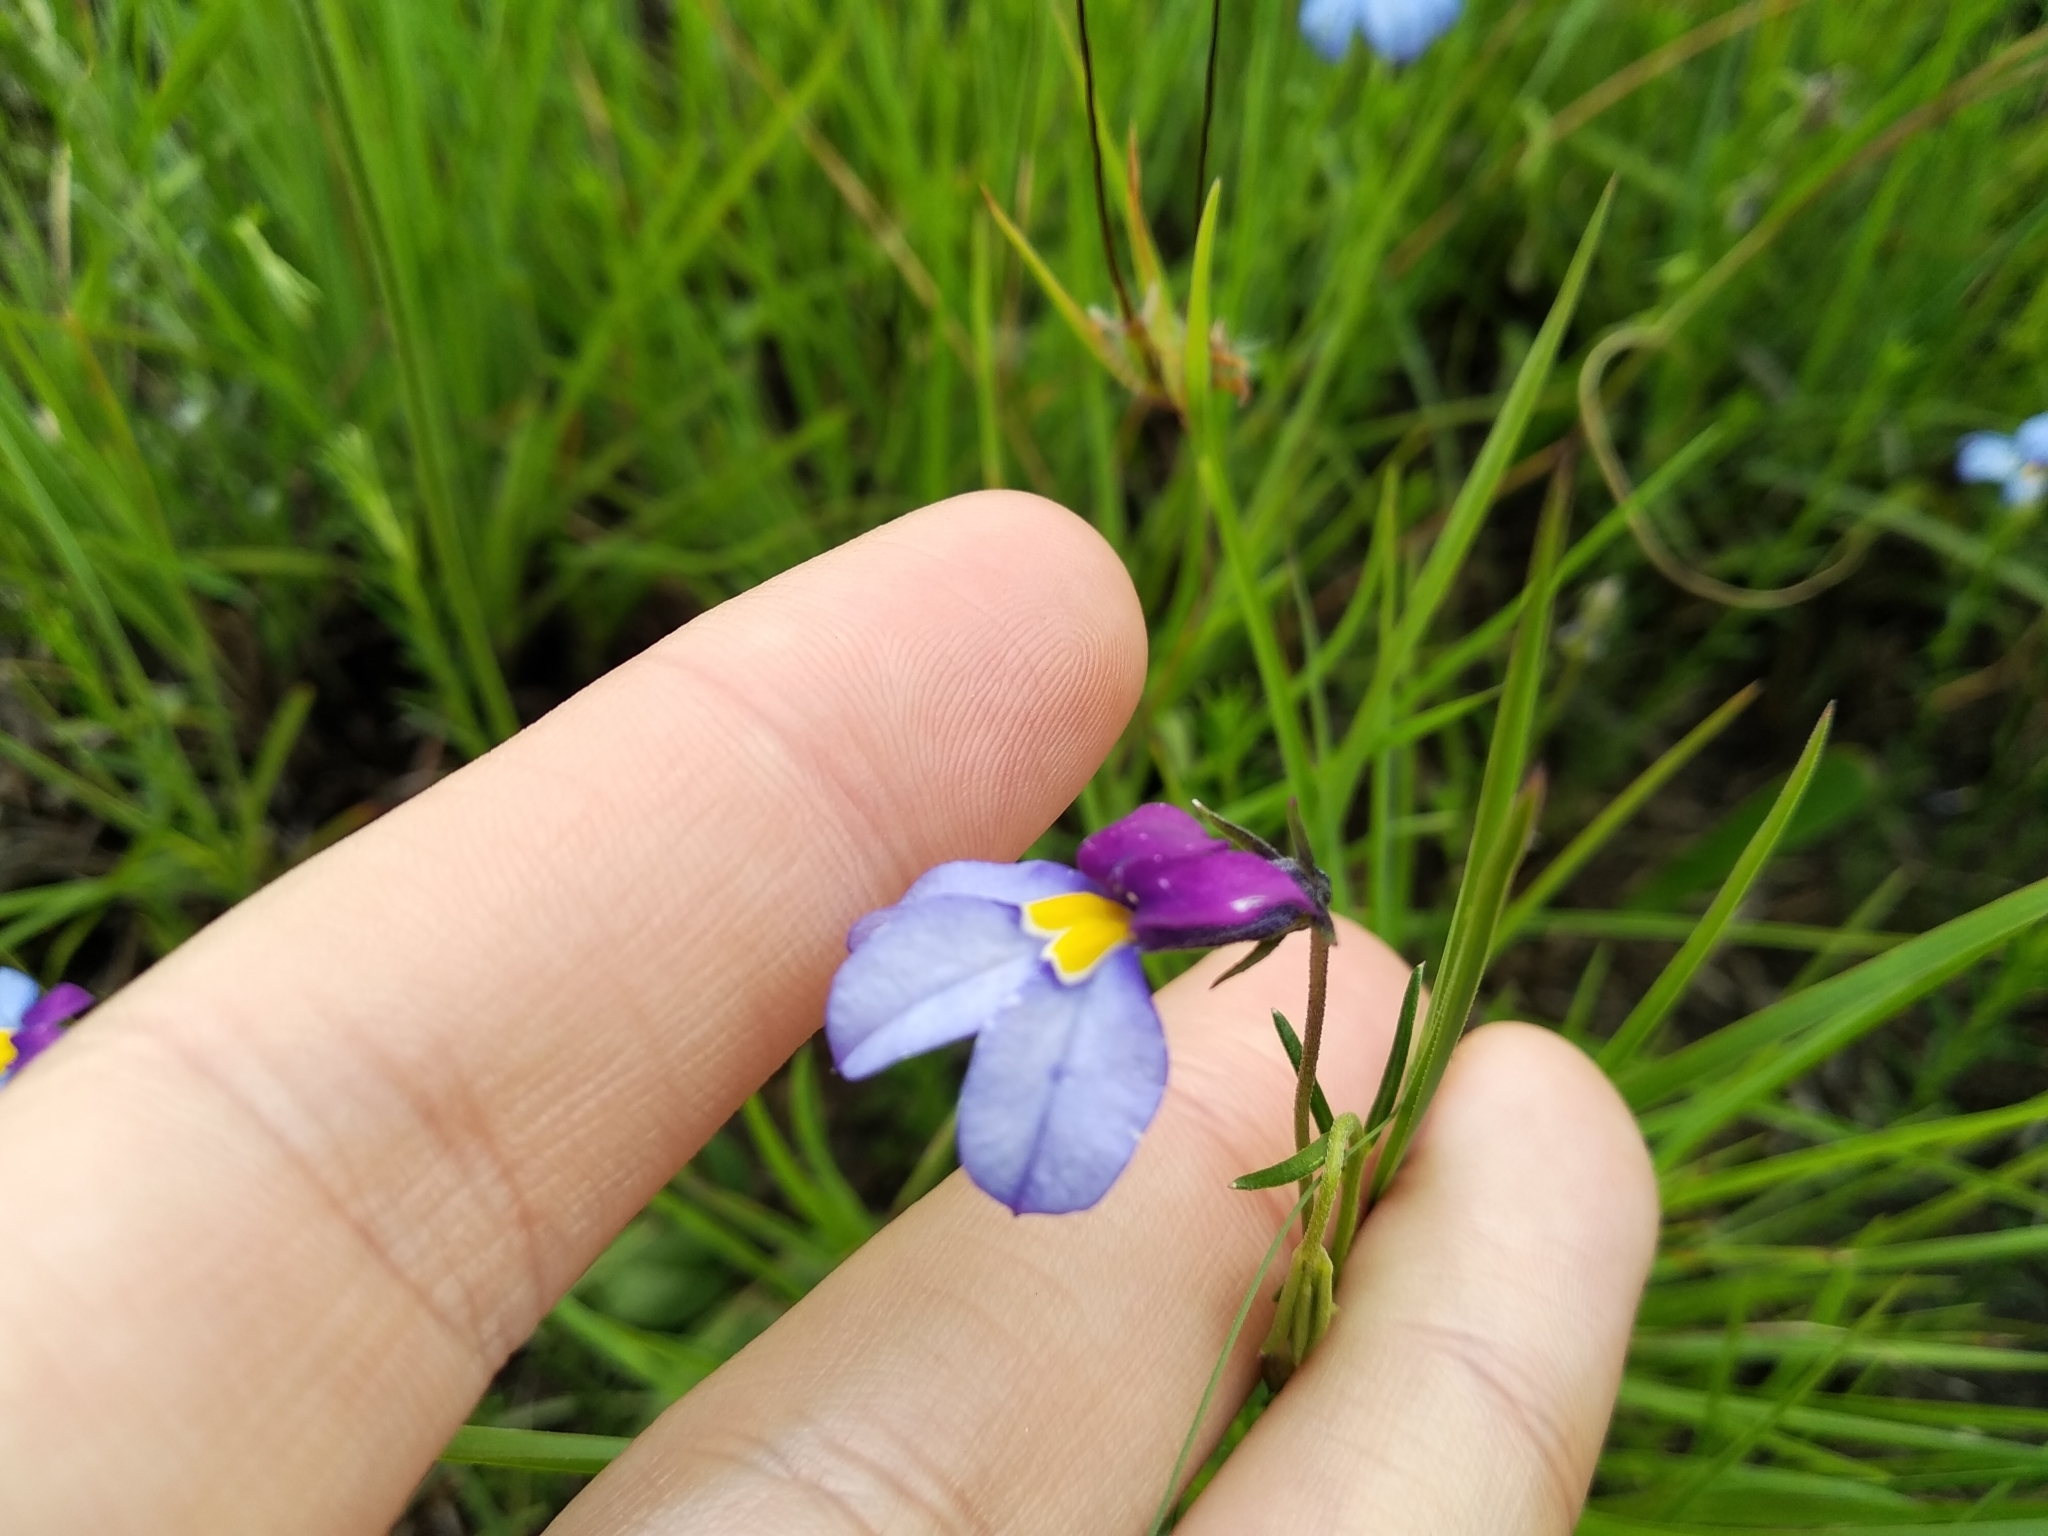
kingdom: Plantae
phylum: Tracheophyta
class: Magnoliopsida
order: Asterales
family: Campanulaceae
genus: Monopsis
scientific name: Monopsis decipiens
